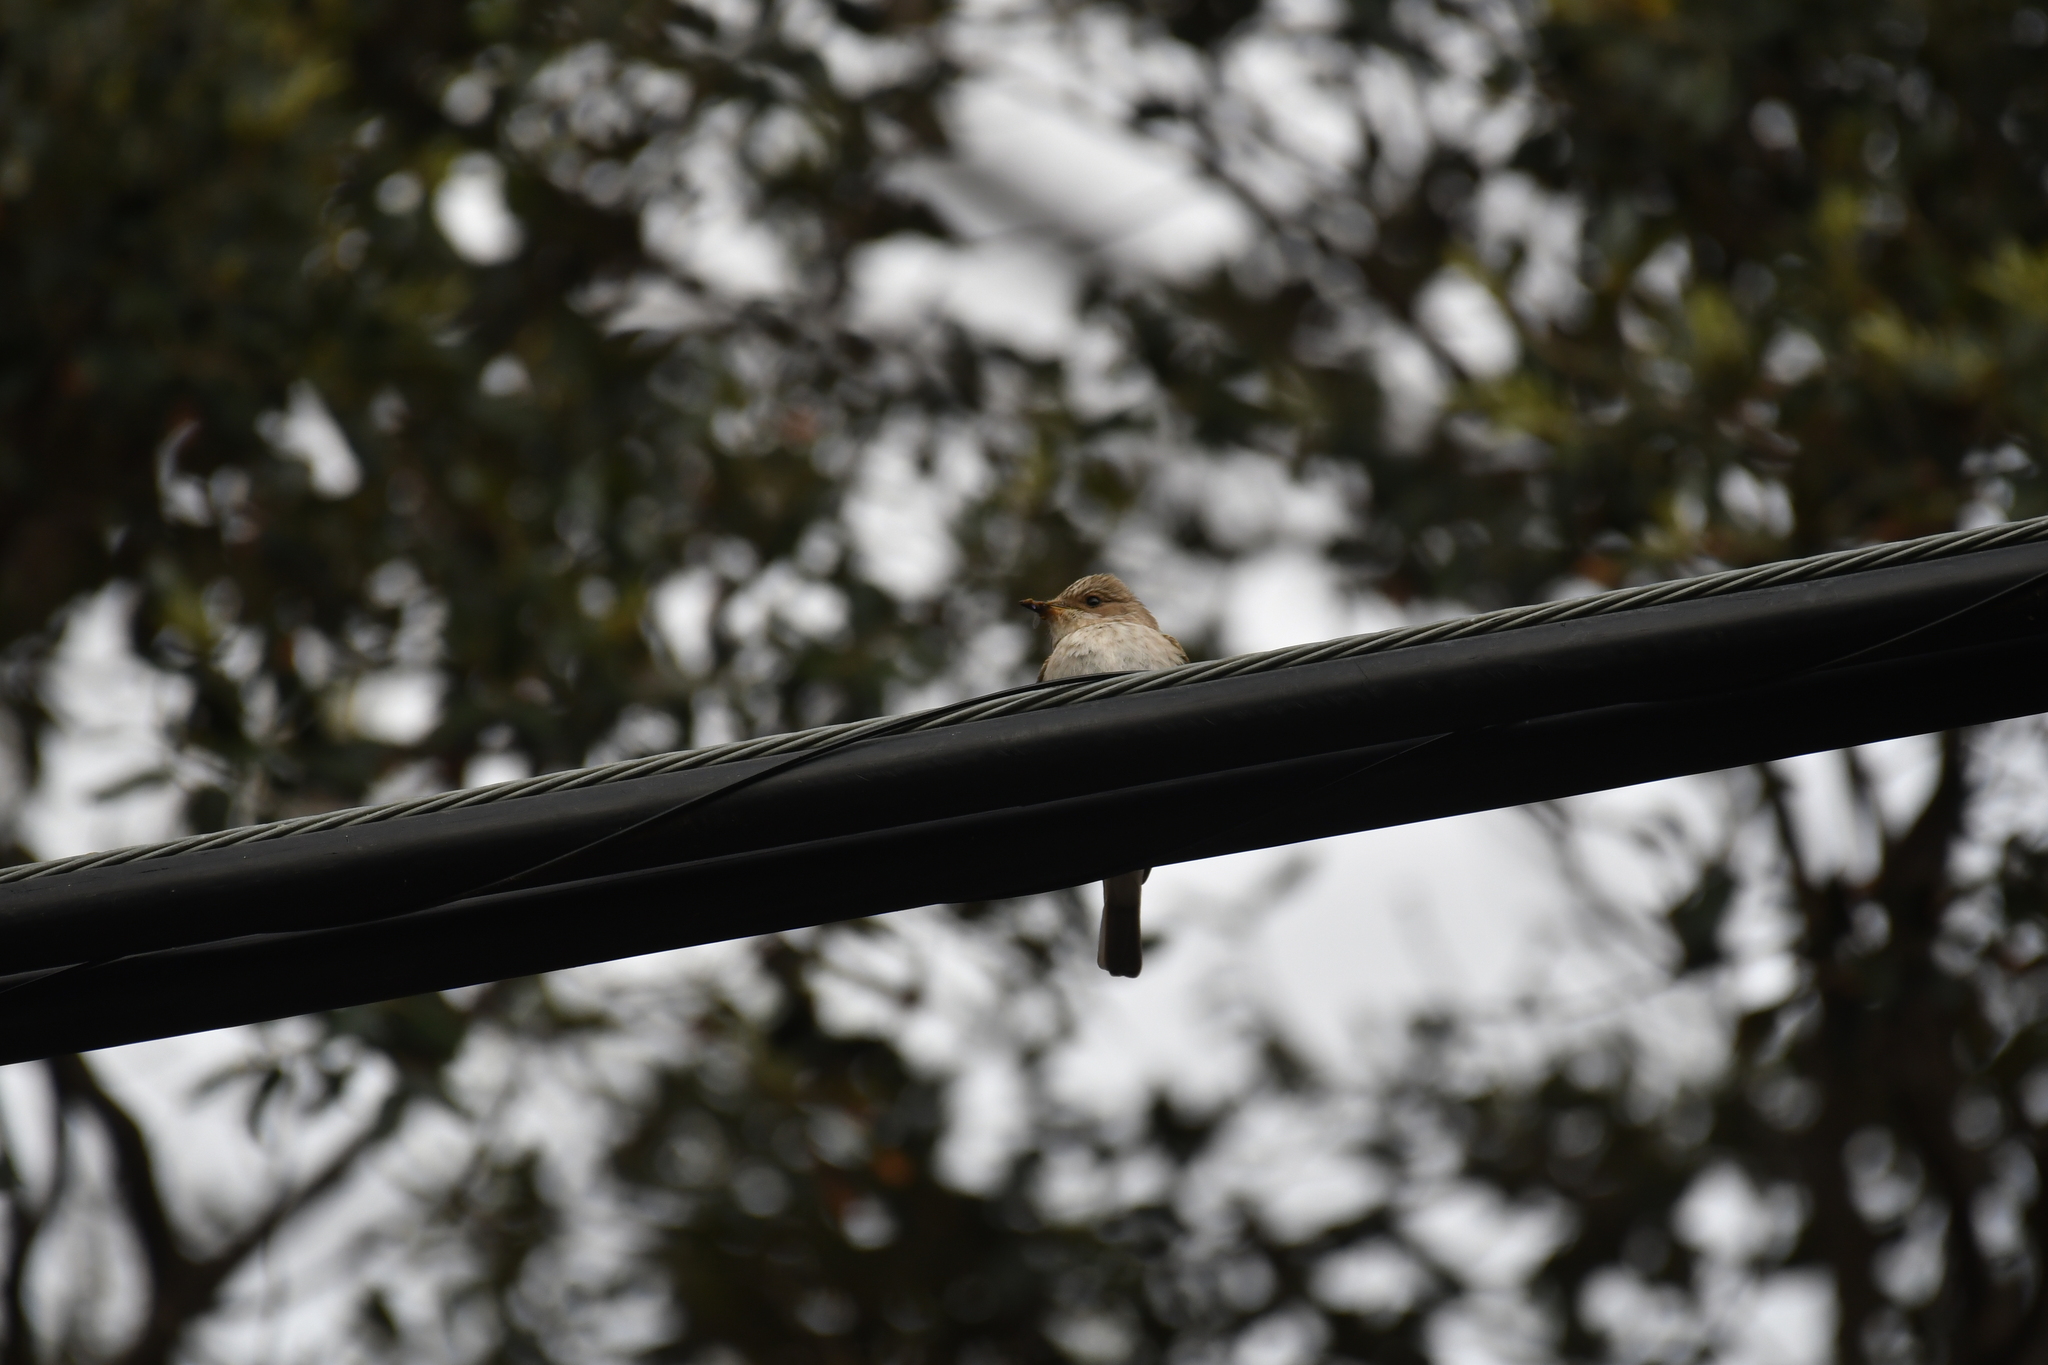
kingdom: Animalia
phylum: Chordata
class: Aves
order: Passeriformes
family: Muscicapidae
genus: Muscicapa
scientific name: Muscicapa striata
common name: Spotted flycatcher
